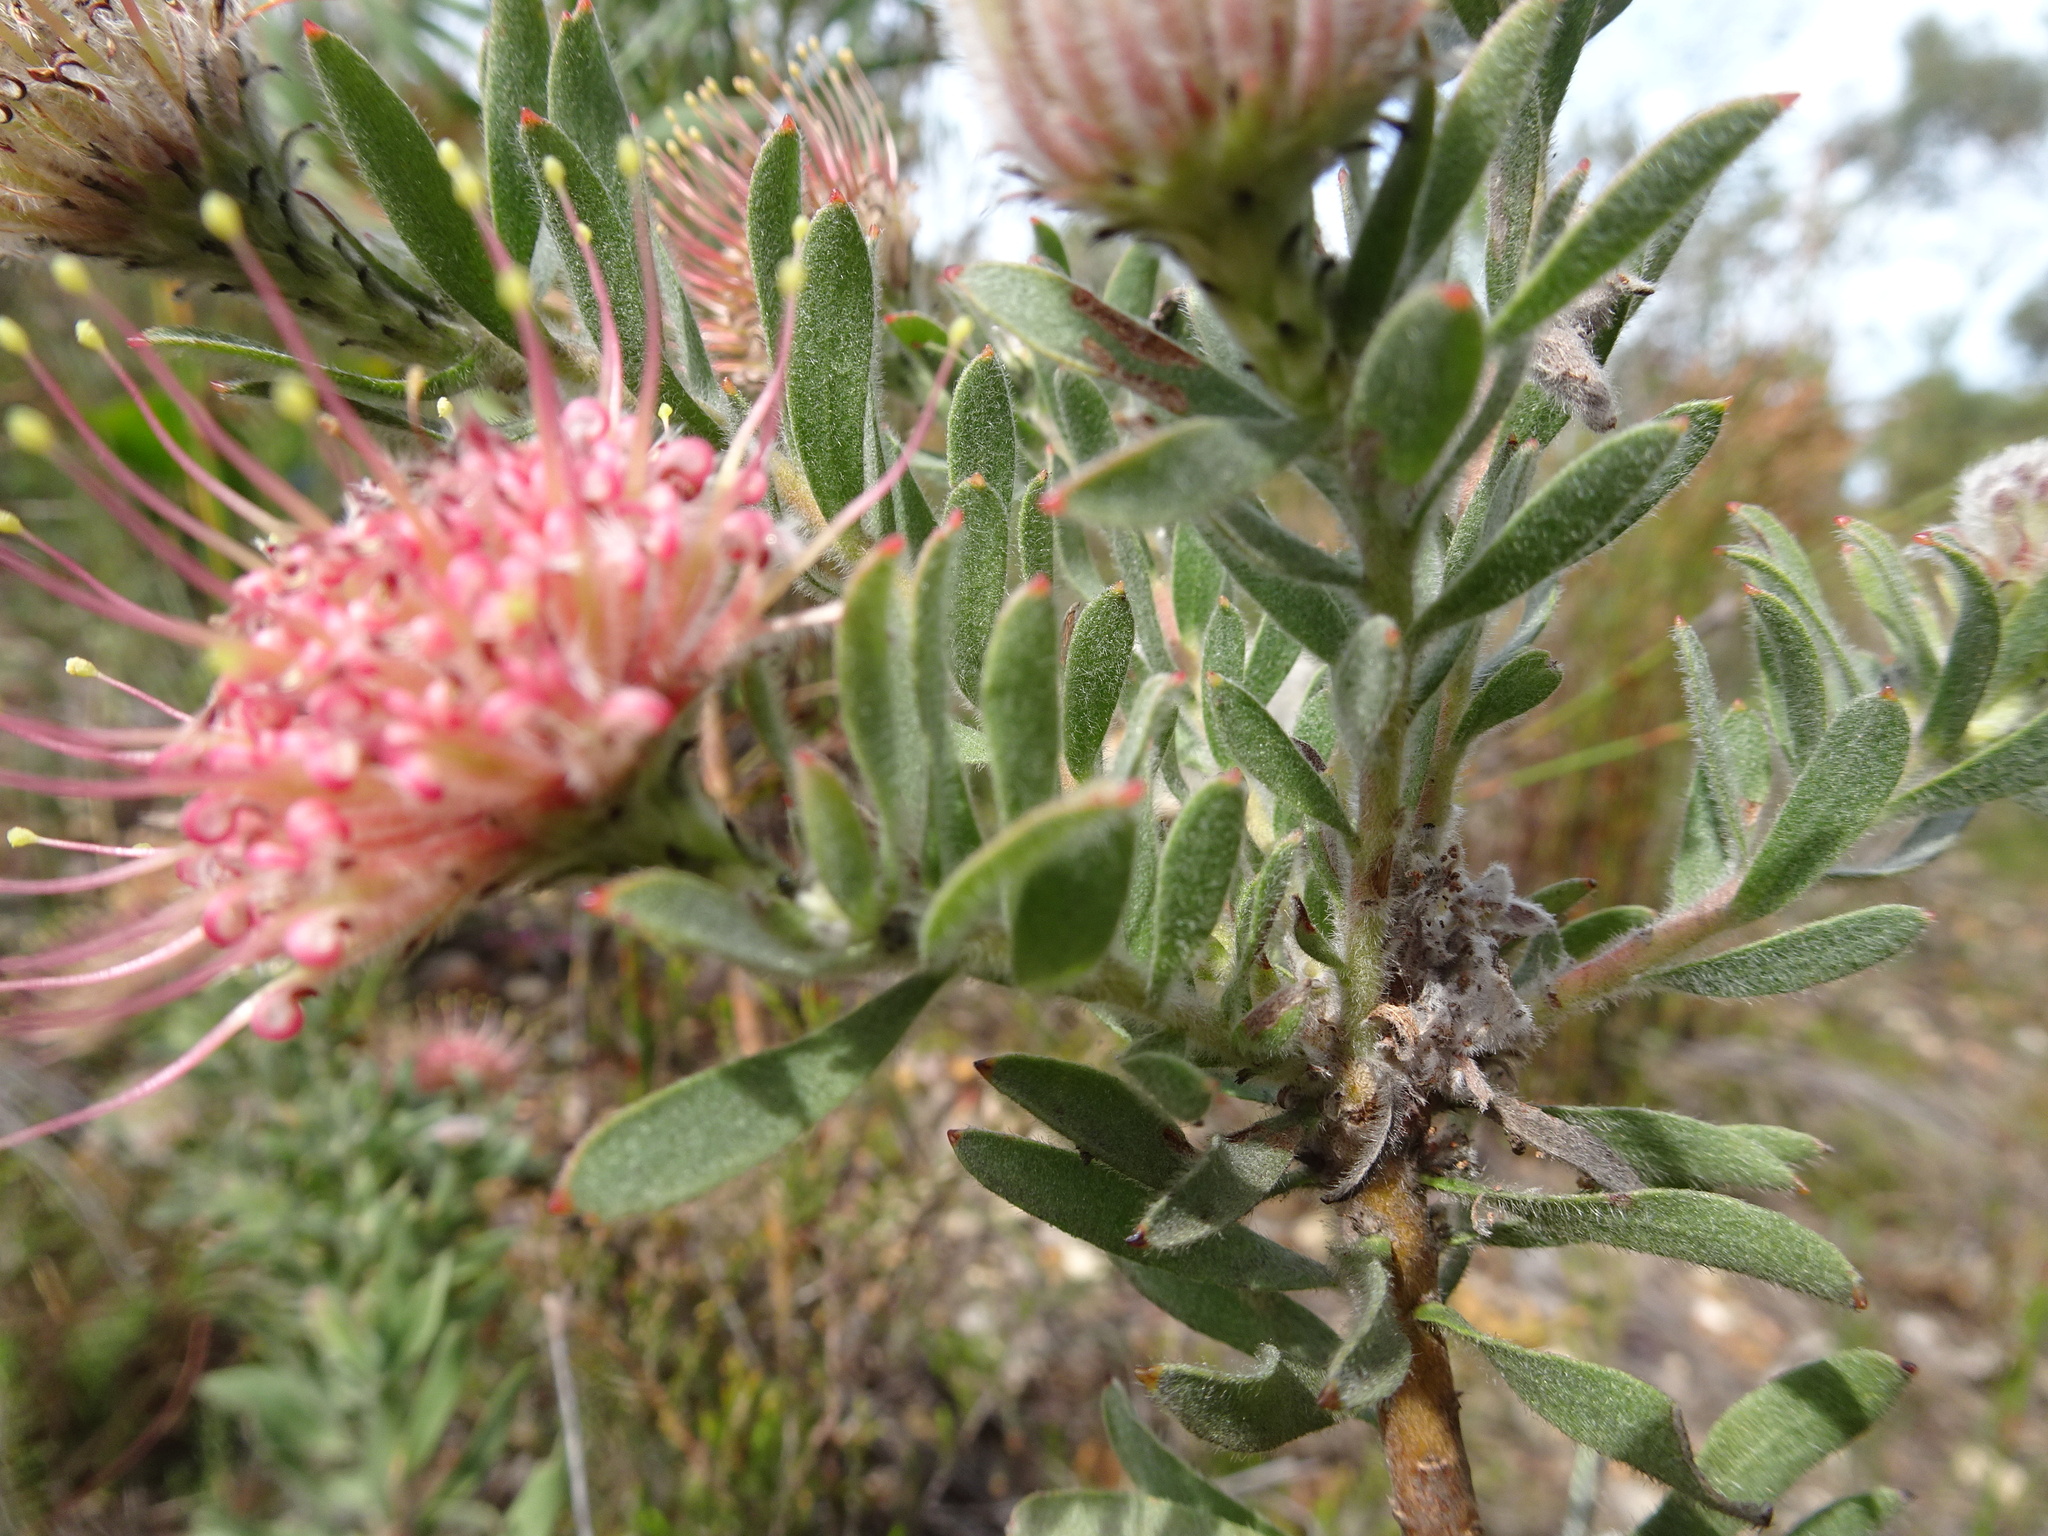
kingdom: Plantae
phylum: Tracheophyta
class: Magnoliopsida
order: Proteales
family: Proteaceae
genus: Leucospermum
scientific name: Leucospermum calligerum
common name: Arid pincushion
